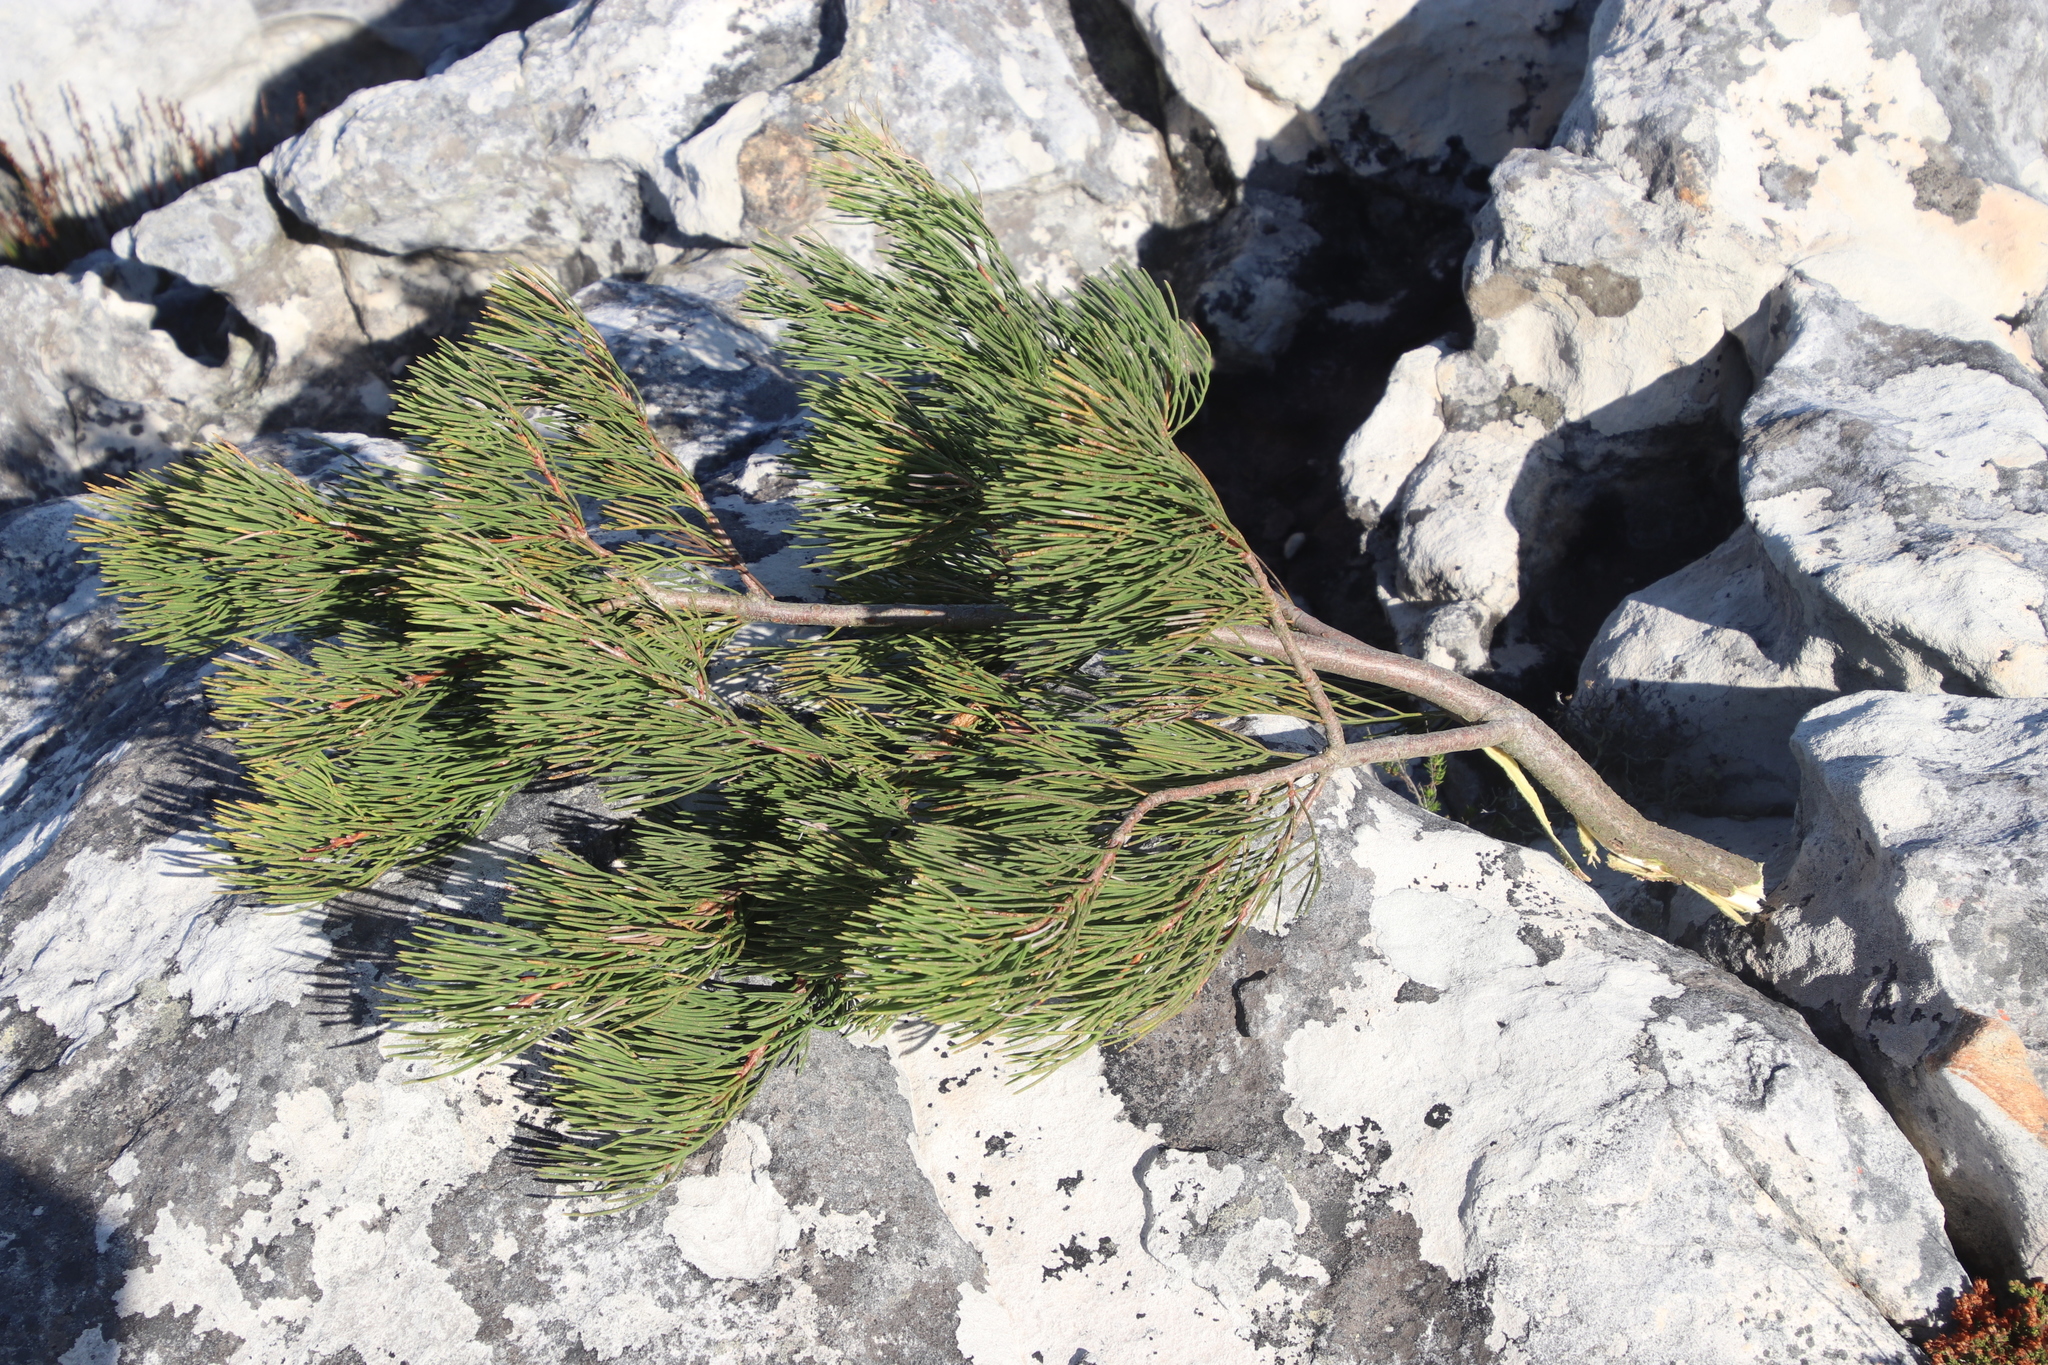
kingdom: Plantae
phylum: Tracheophyta
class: Magnoliopsida
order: Proteales
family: Proteaceae
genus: Hakea
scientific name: Hakea drupacea
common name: Sweet hakea
